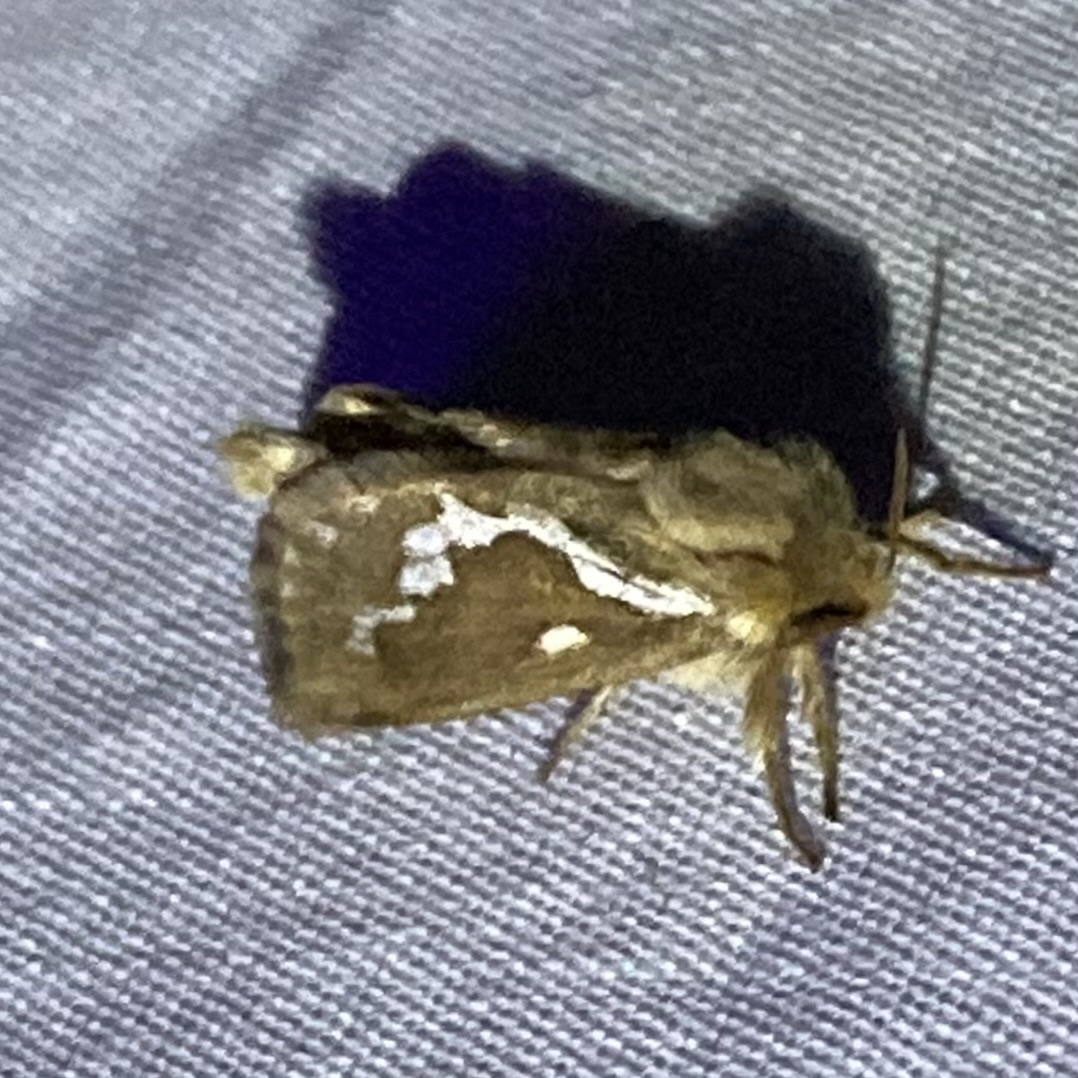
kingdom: Animalia
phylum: Arthropoda
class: Insecta
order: Lepidoptera
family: Hepialidae
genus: Korscheltellus
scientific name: Korscheltellus lupulina
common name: Common swift
